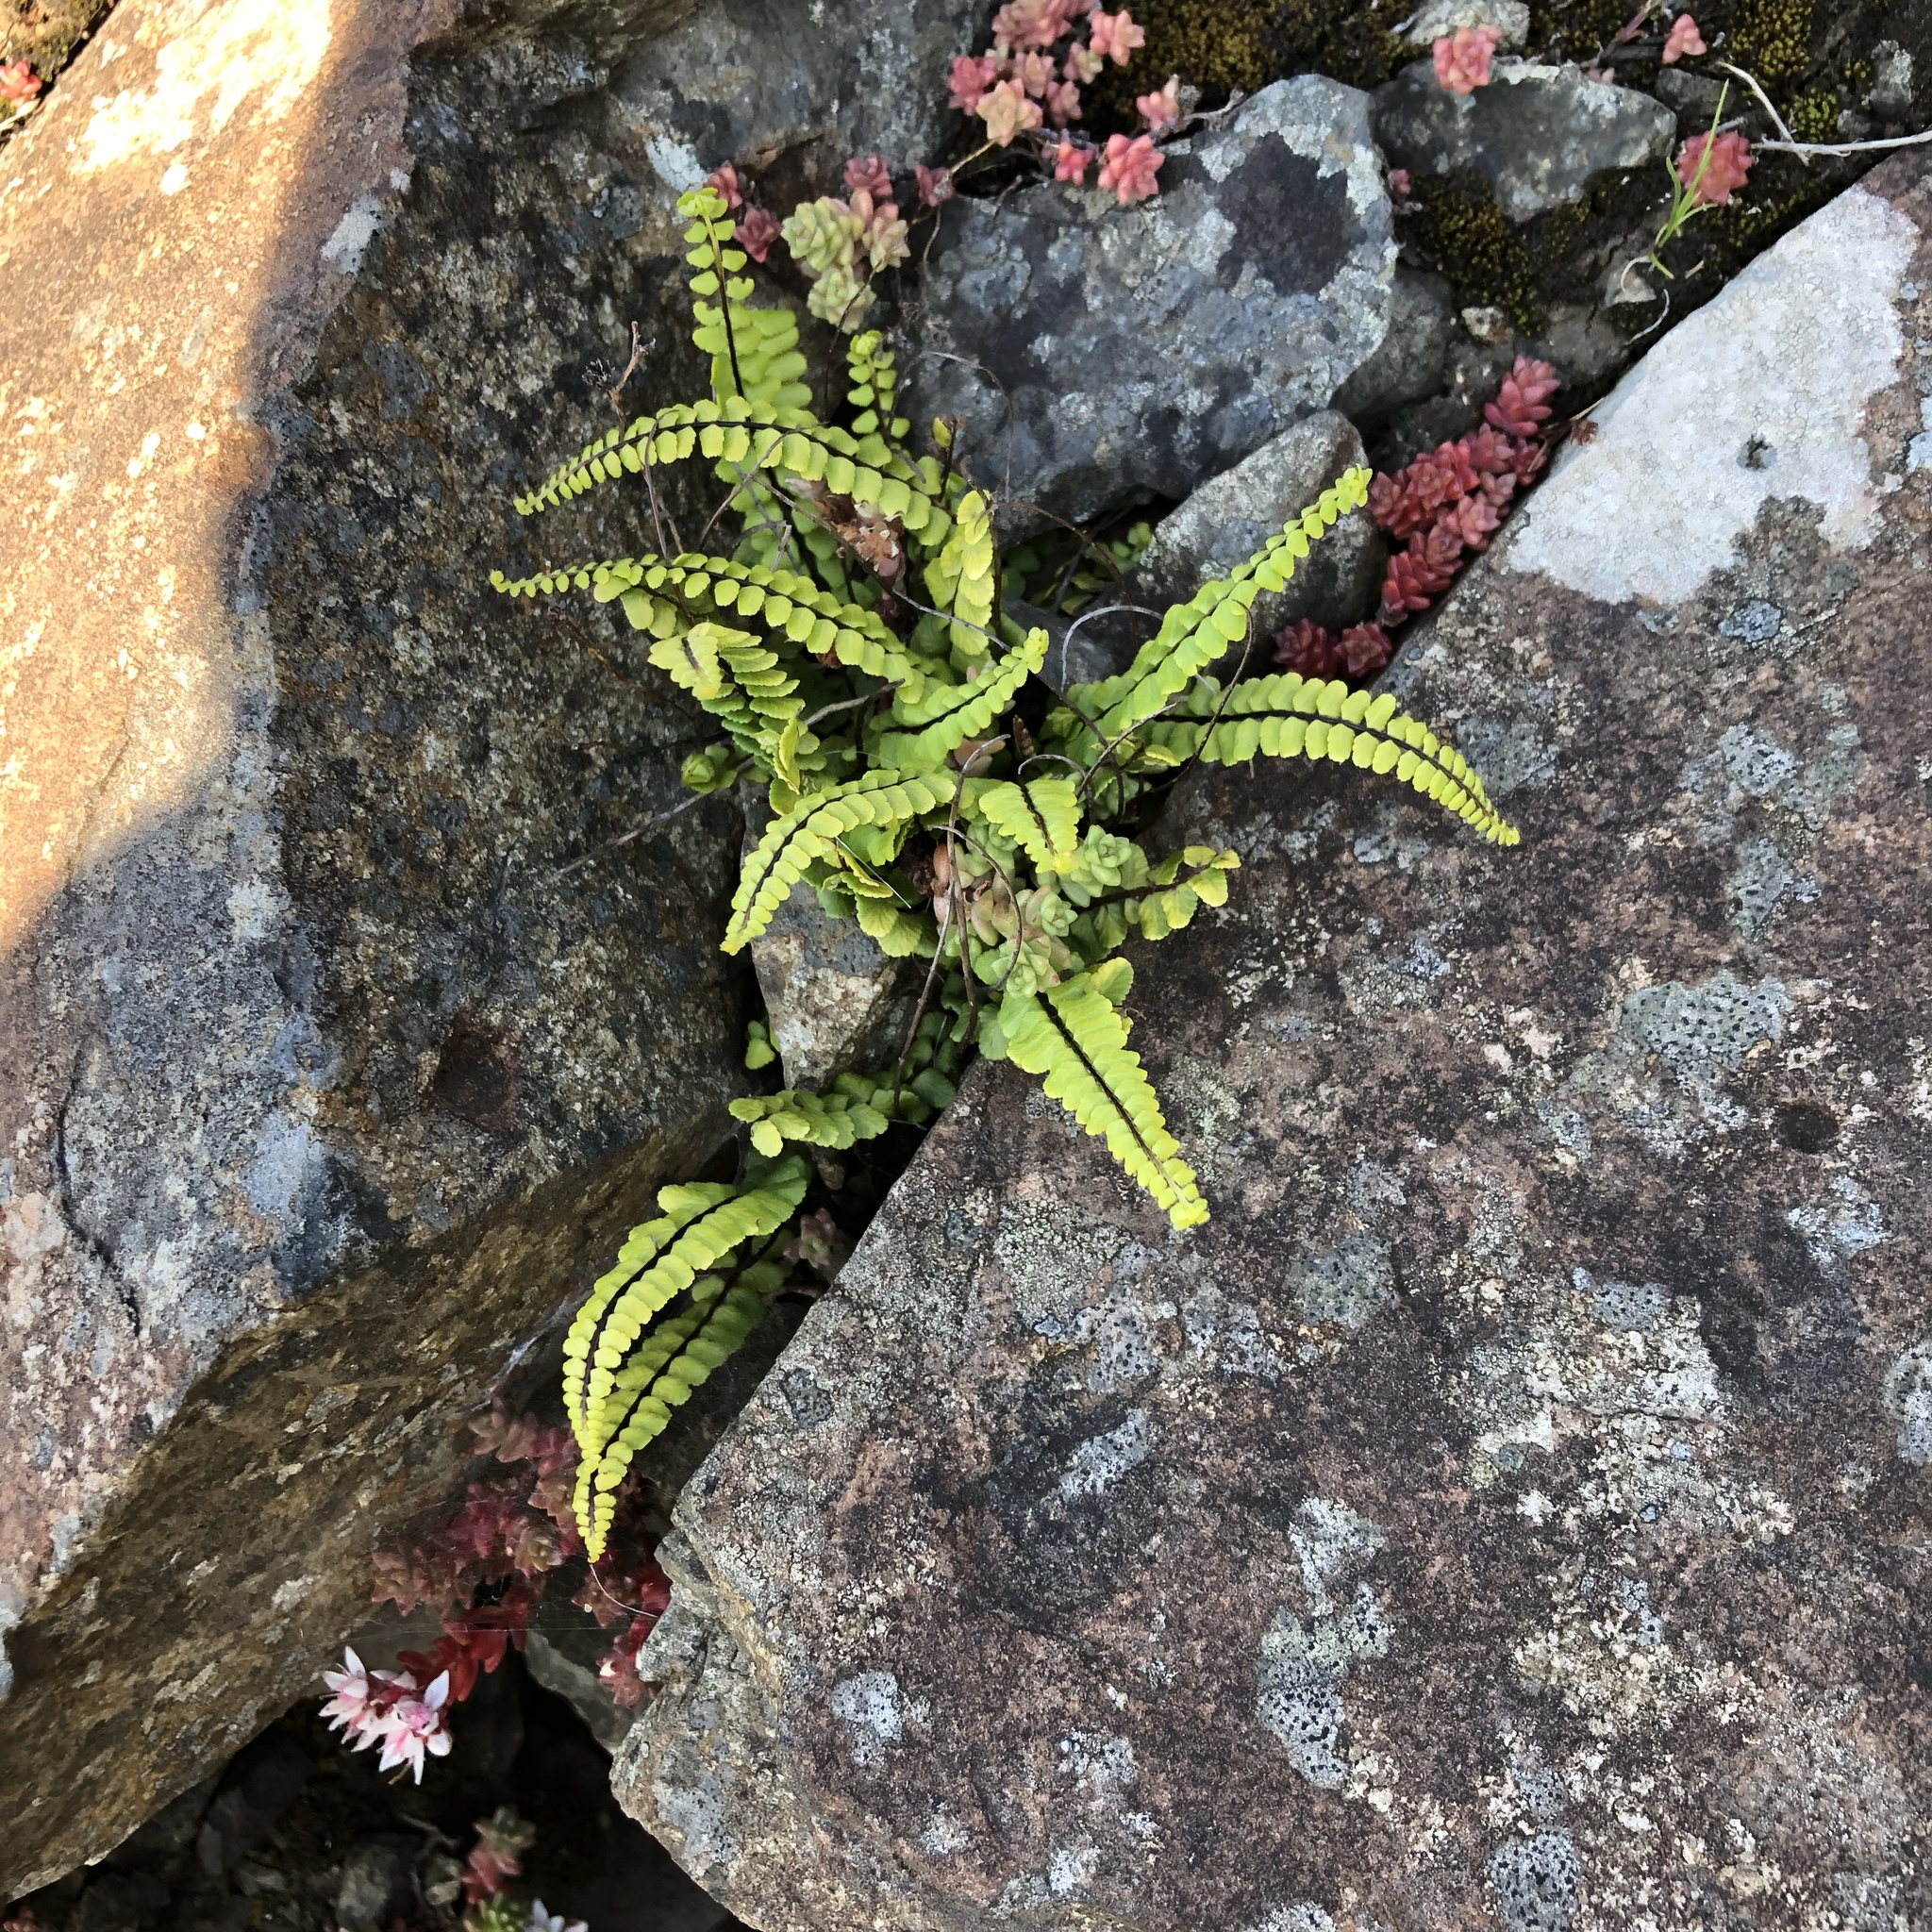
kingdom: Plantae
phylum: Tracheophyta
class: Polypodiopsida
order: Polypodiales
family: Aspleniaceae
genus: Asplenium
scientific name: Asplenium trichomanes
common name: Maidenhair spleenwort
